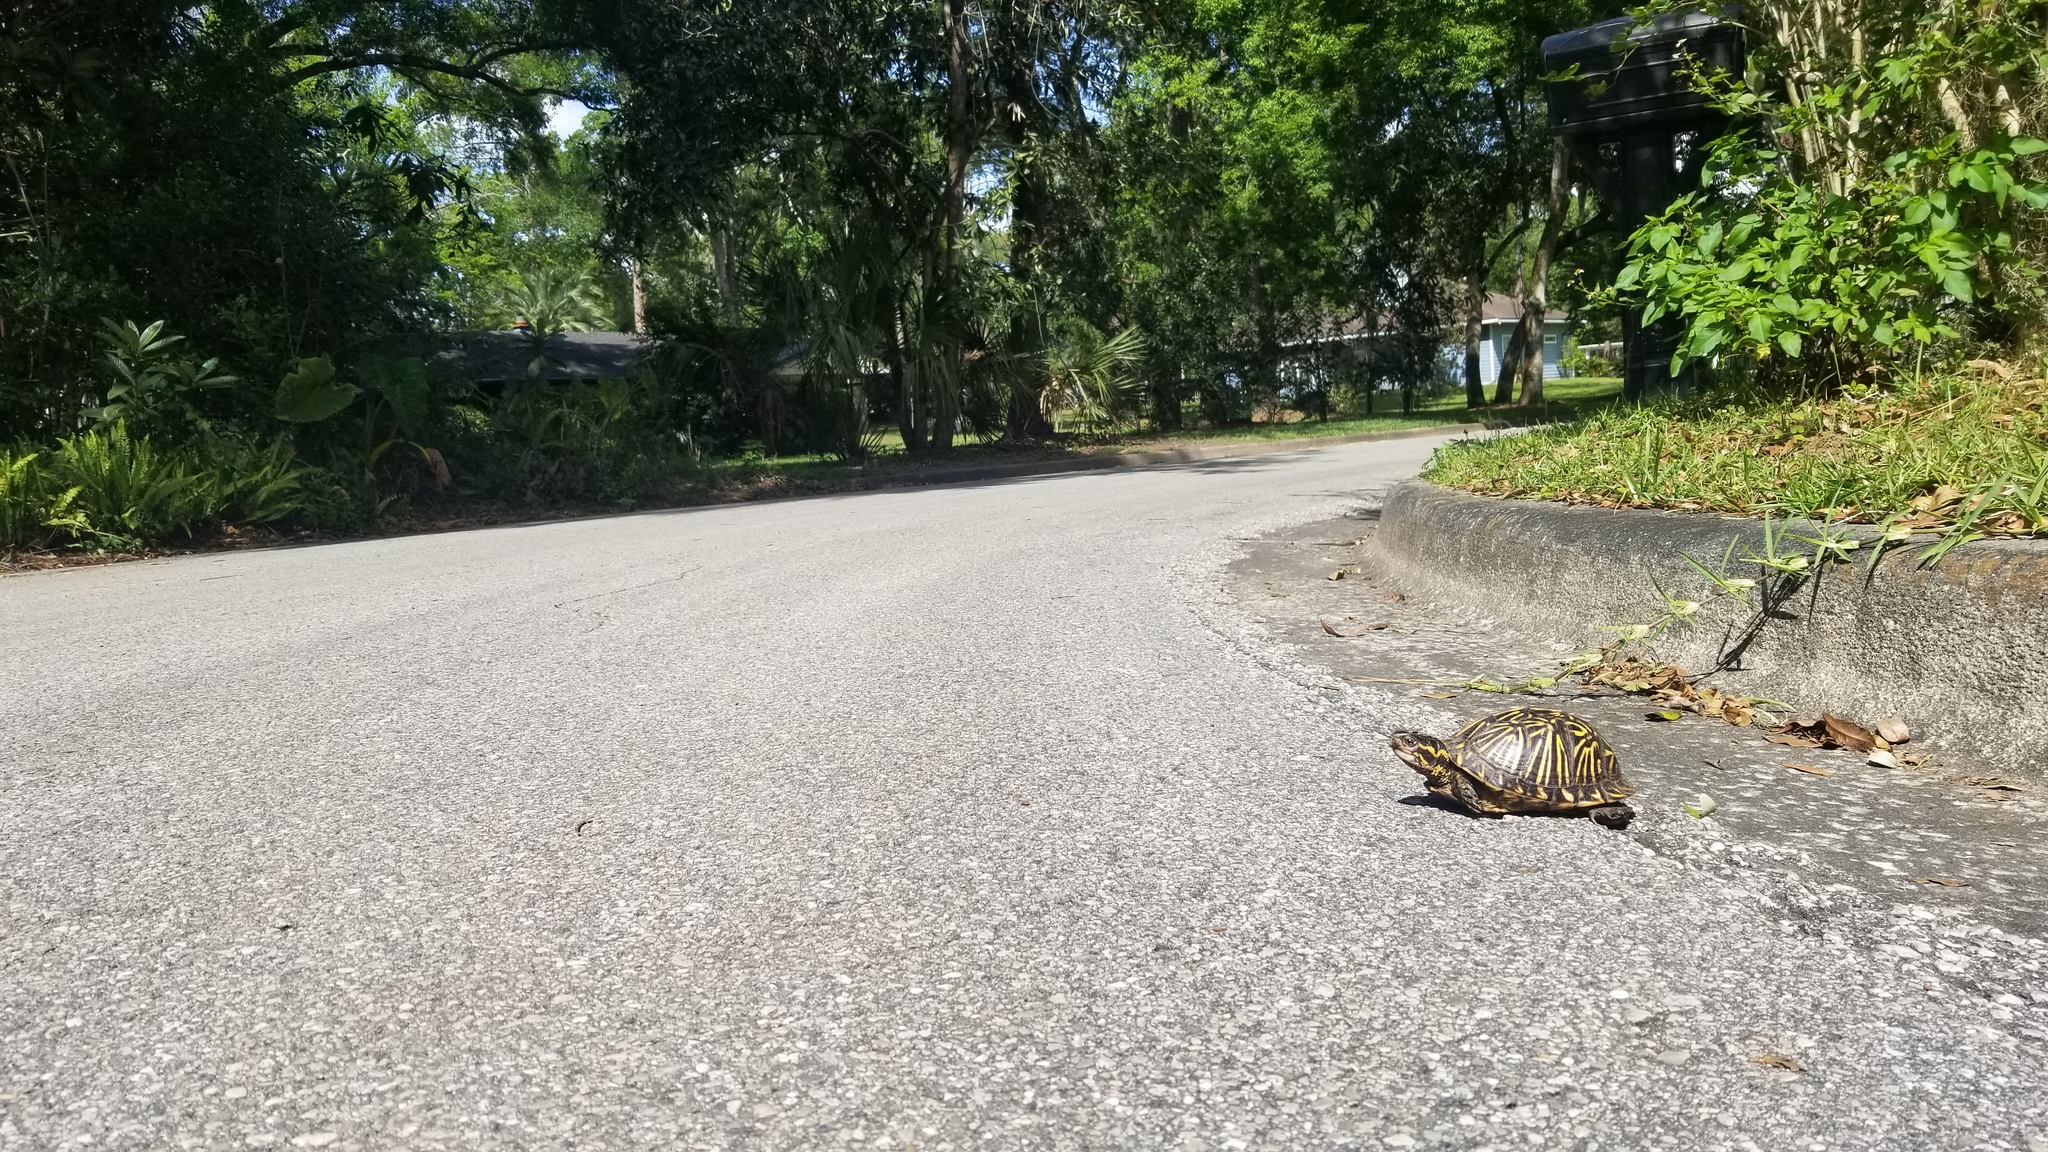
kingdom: Animalia
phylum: Chordata
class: Testudines
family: Emydidae
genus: Terrapene
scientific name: Terrapene carolina
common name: Common box turtle
